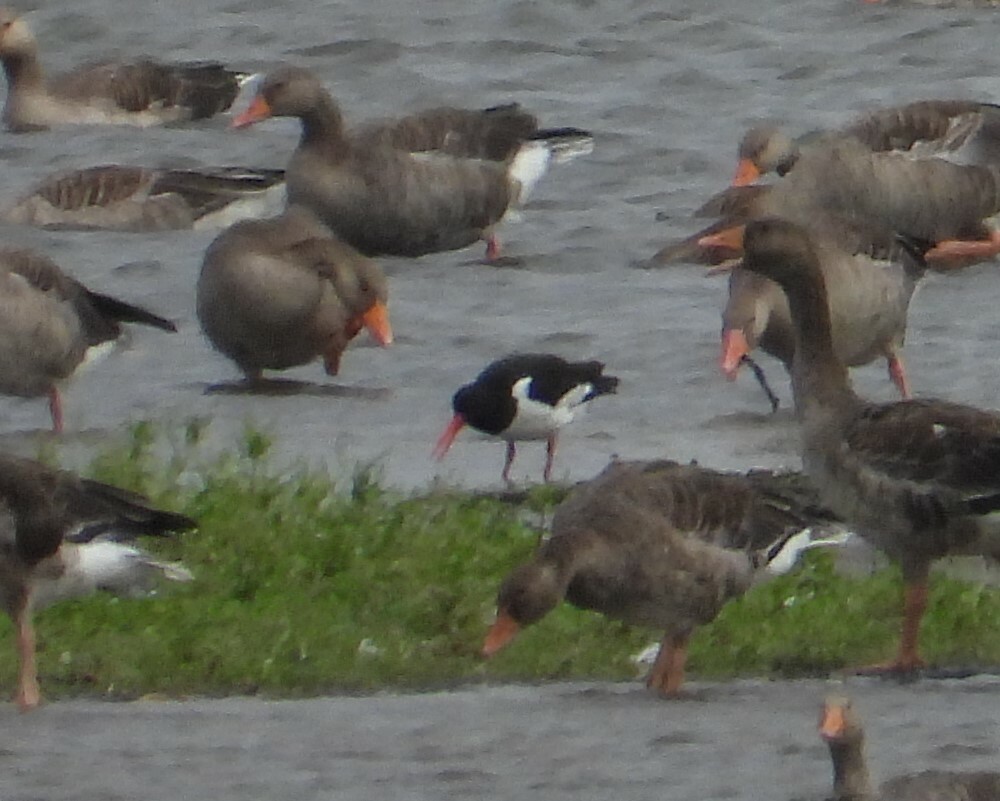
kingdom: Animalia
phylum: Chordata
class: Aves
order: Charadriiformes
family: Haematopodidae
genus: Haematopus
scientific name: Haematopus ostralegus
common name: Eurasian oystercatcher
